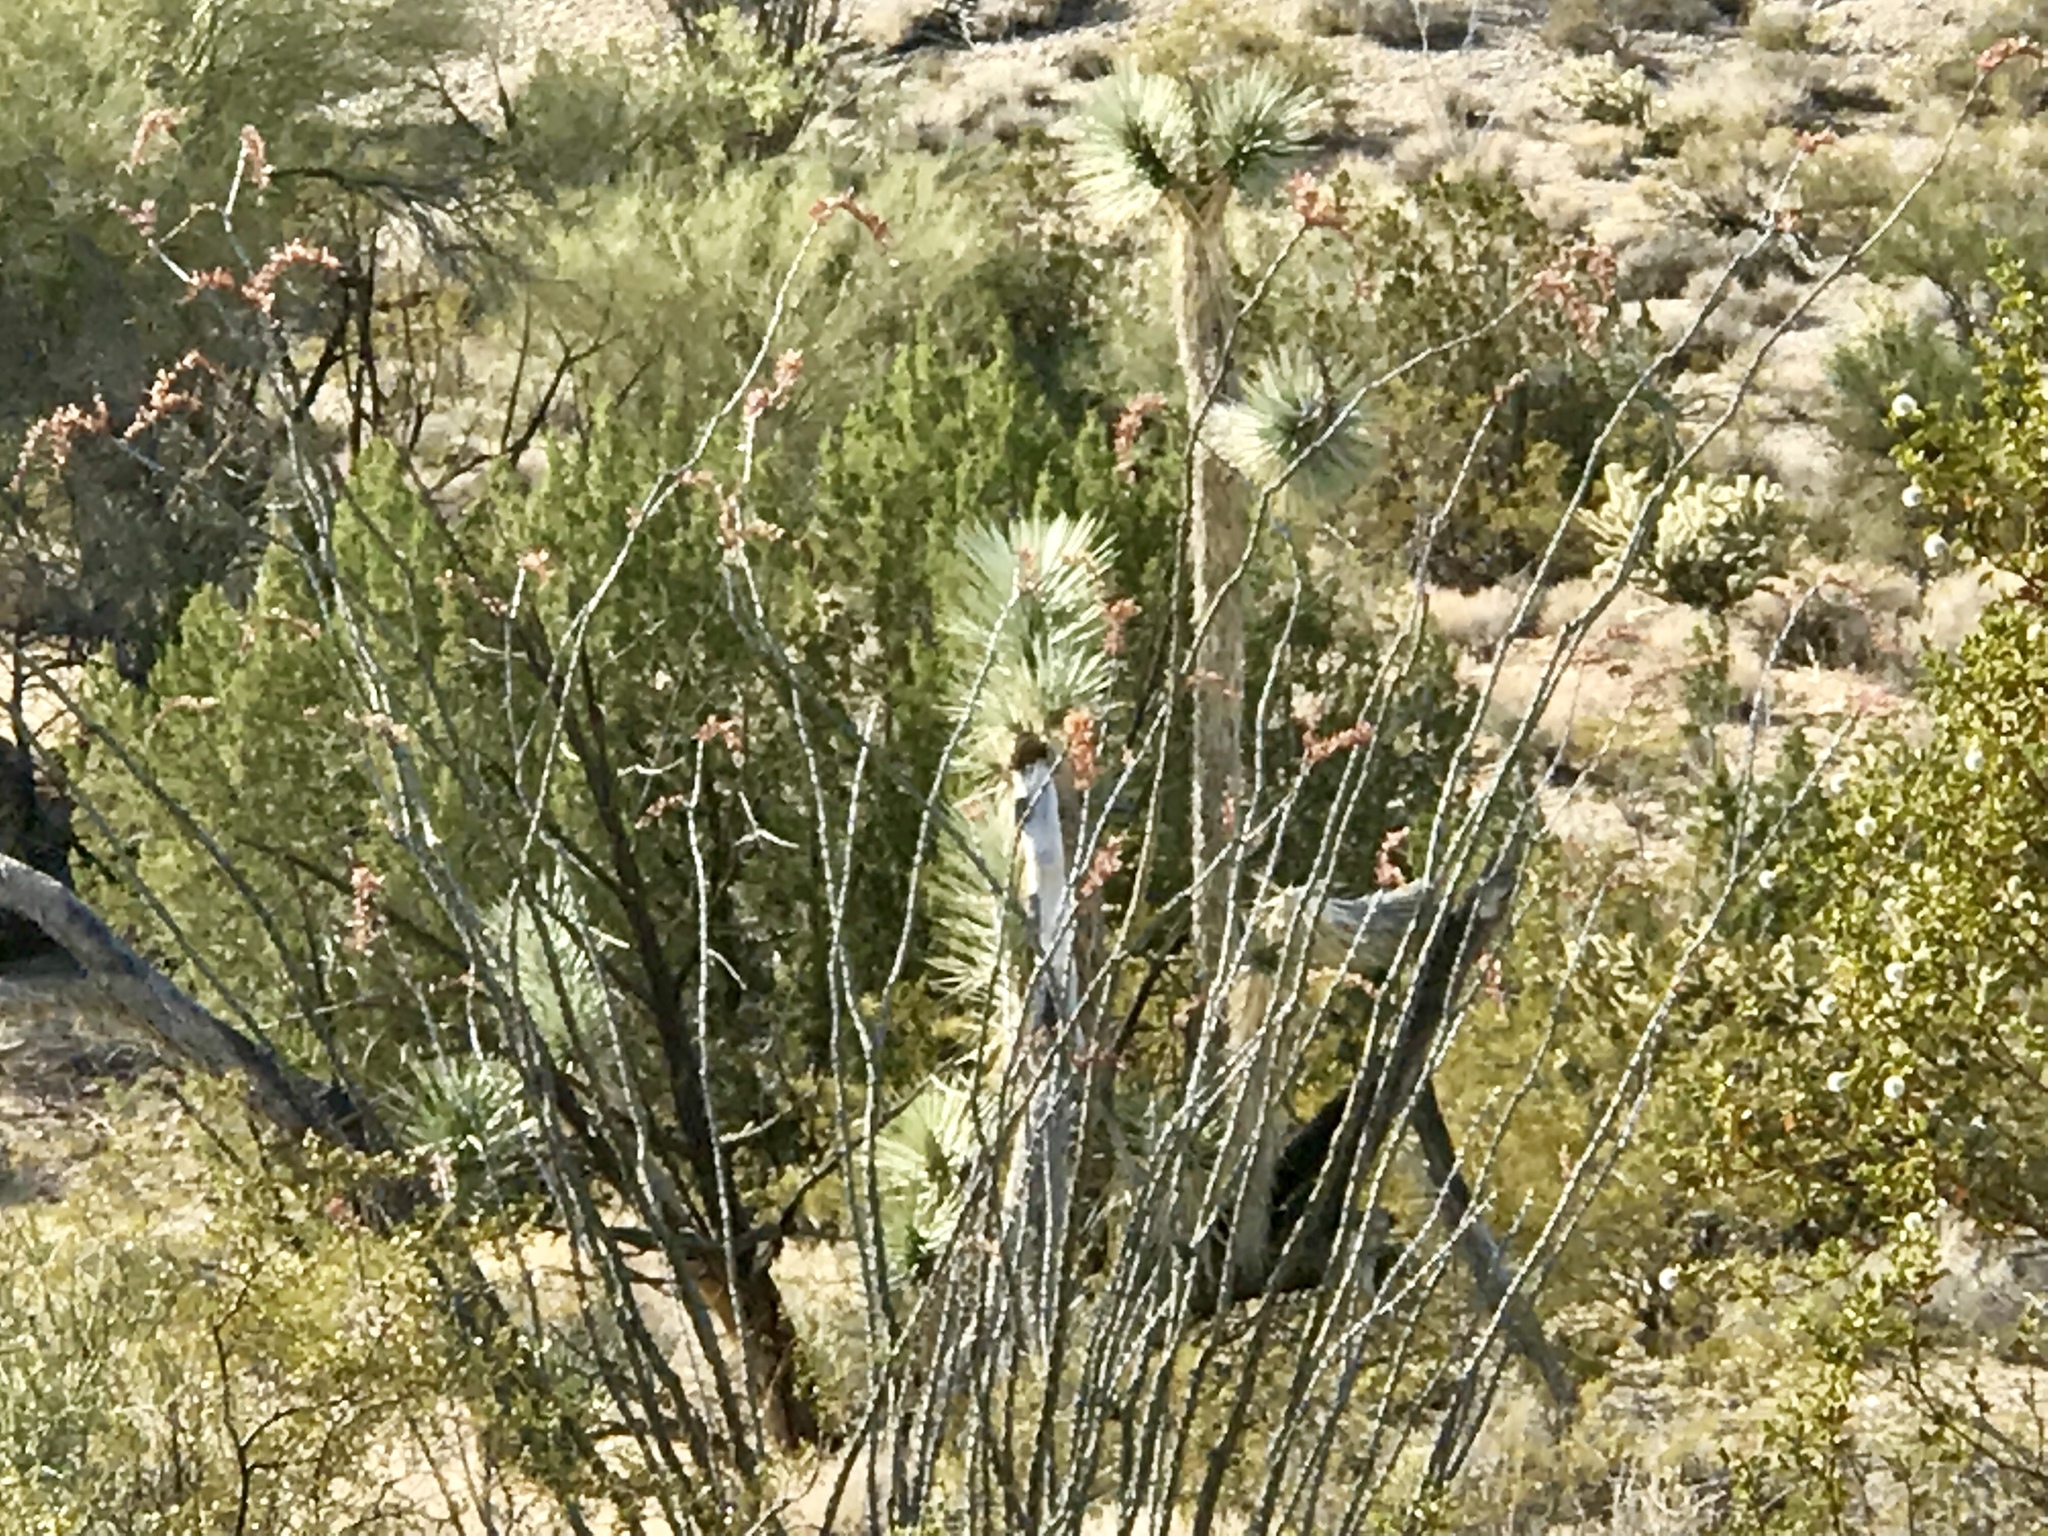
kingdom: Plantae
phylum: Tracheophyta
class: Magnoliopsida
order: Ericales
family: Fouquieriaceae
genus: Fouquieria
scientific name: Fouquieria splendens
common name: Vine-cactus
